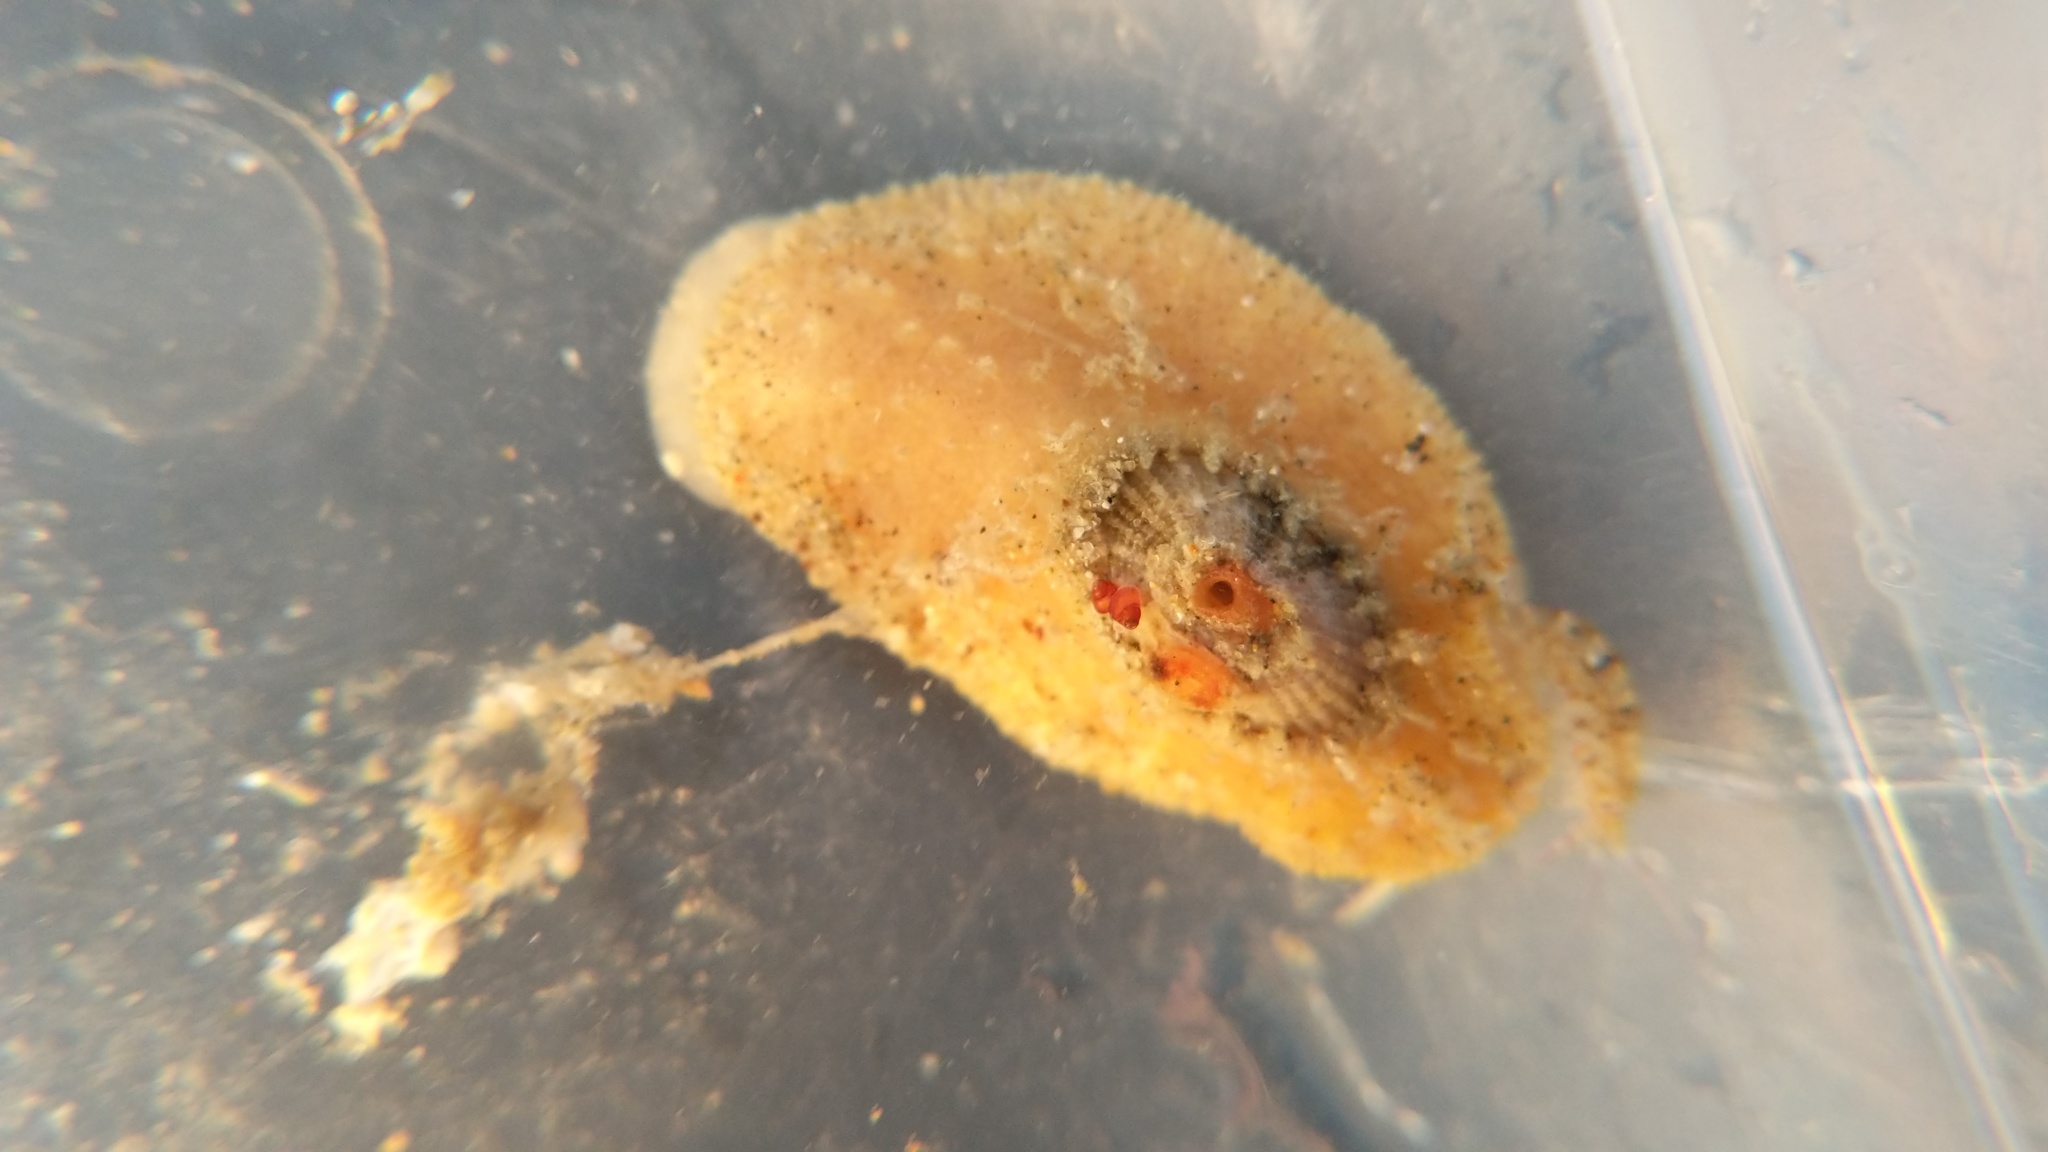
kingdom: Animalia
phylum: Mollusca
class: Gastropoda
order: Lepetellida
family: Fissurellidae
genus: Fissurellidea
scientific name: Fissurellidea bimaculata
